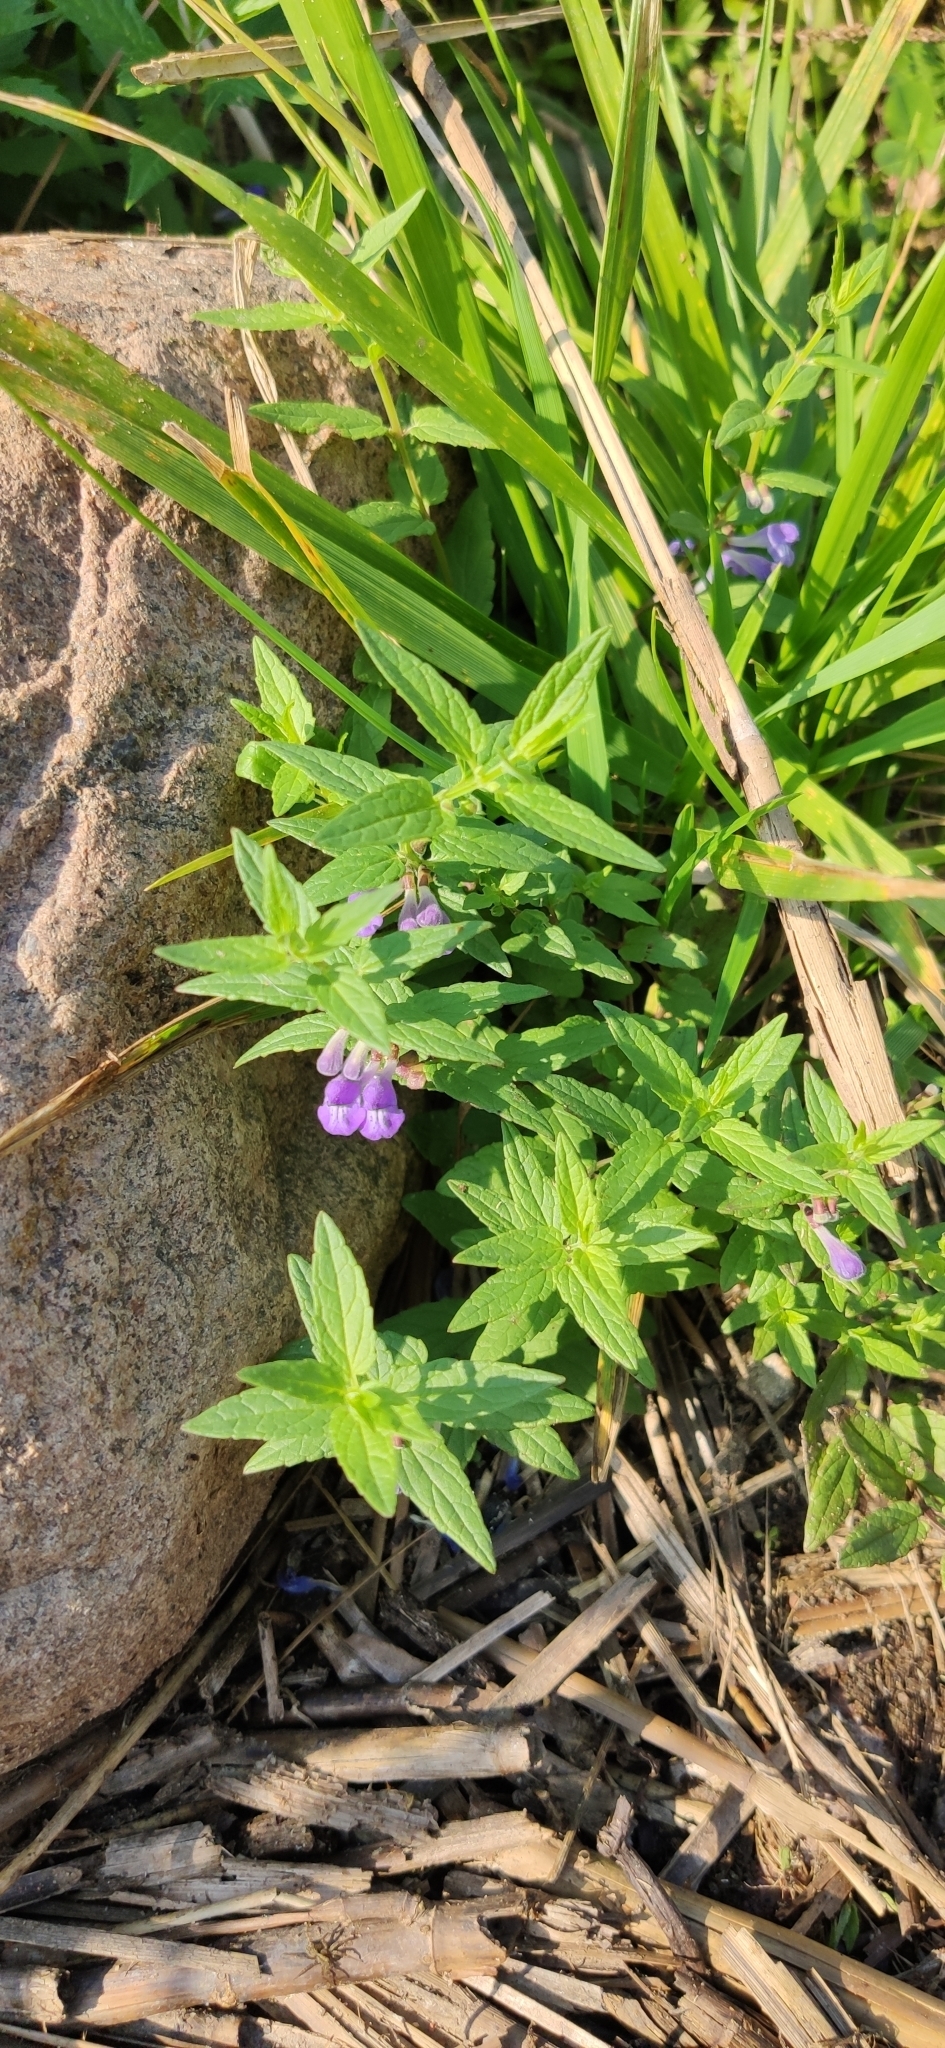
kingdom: Plantae
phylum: Tracheophyta
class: Magnoliopsida
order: Lamiales
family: Lamiaceae
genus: Scutellaria
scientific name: Scutellaria galericulata
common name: Skullcap
